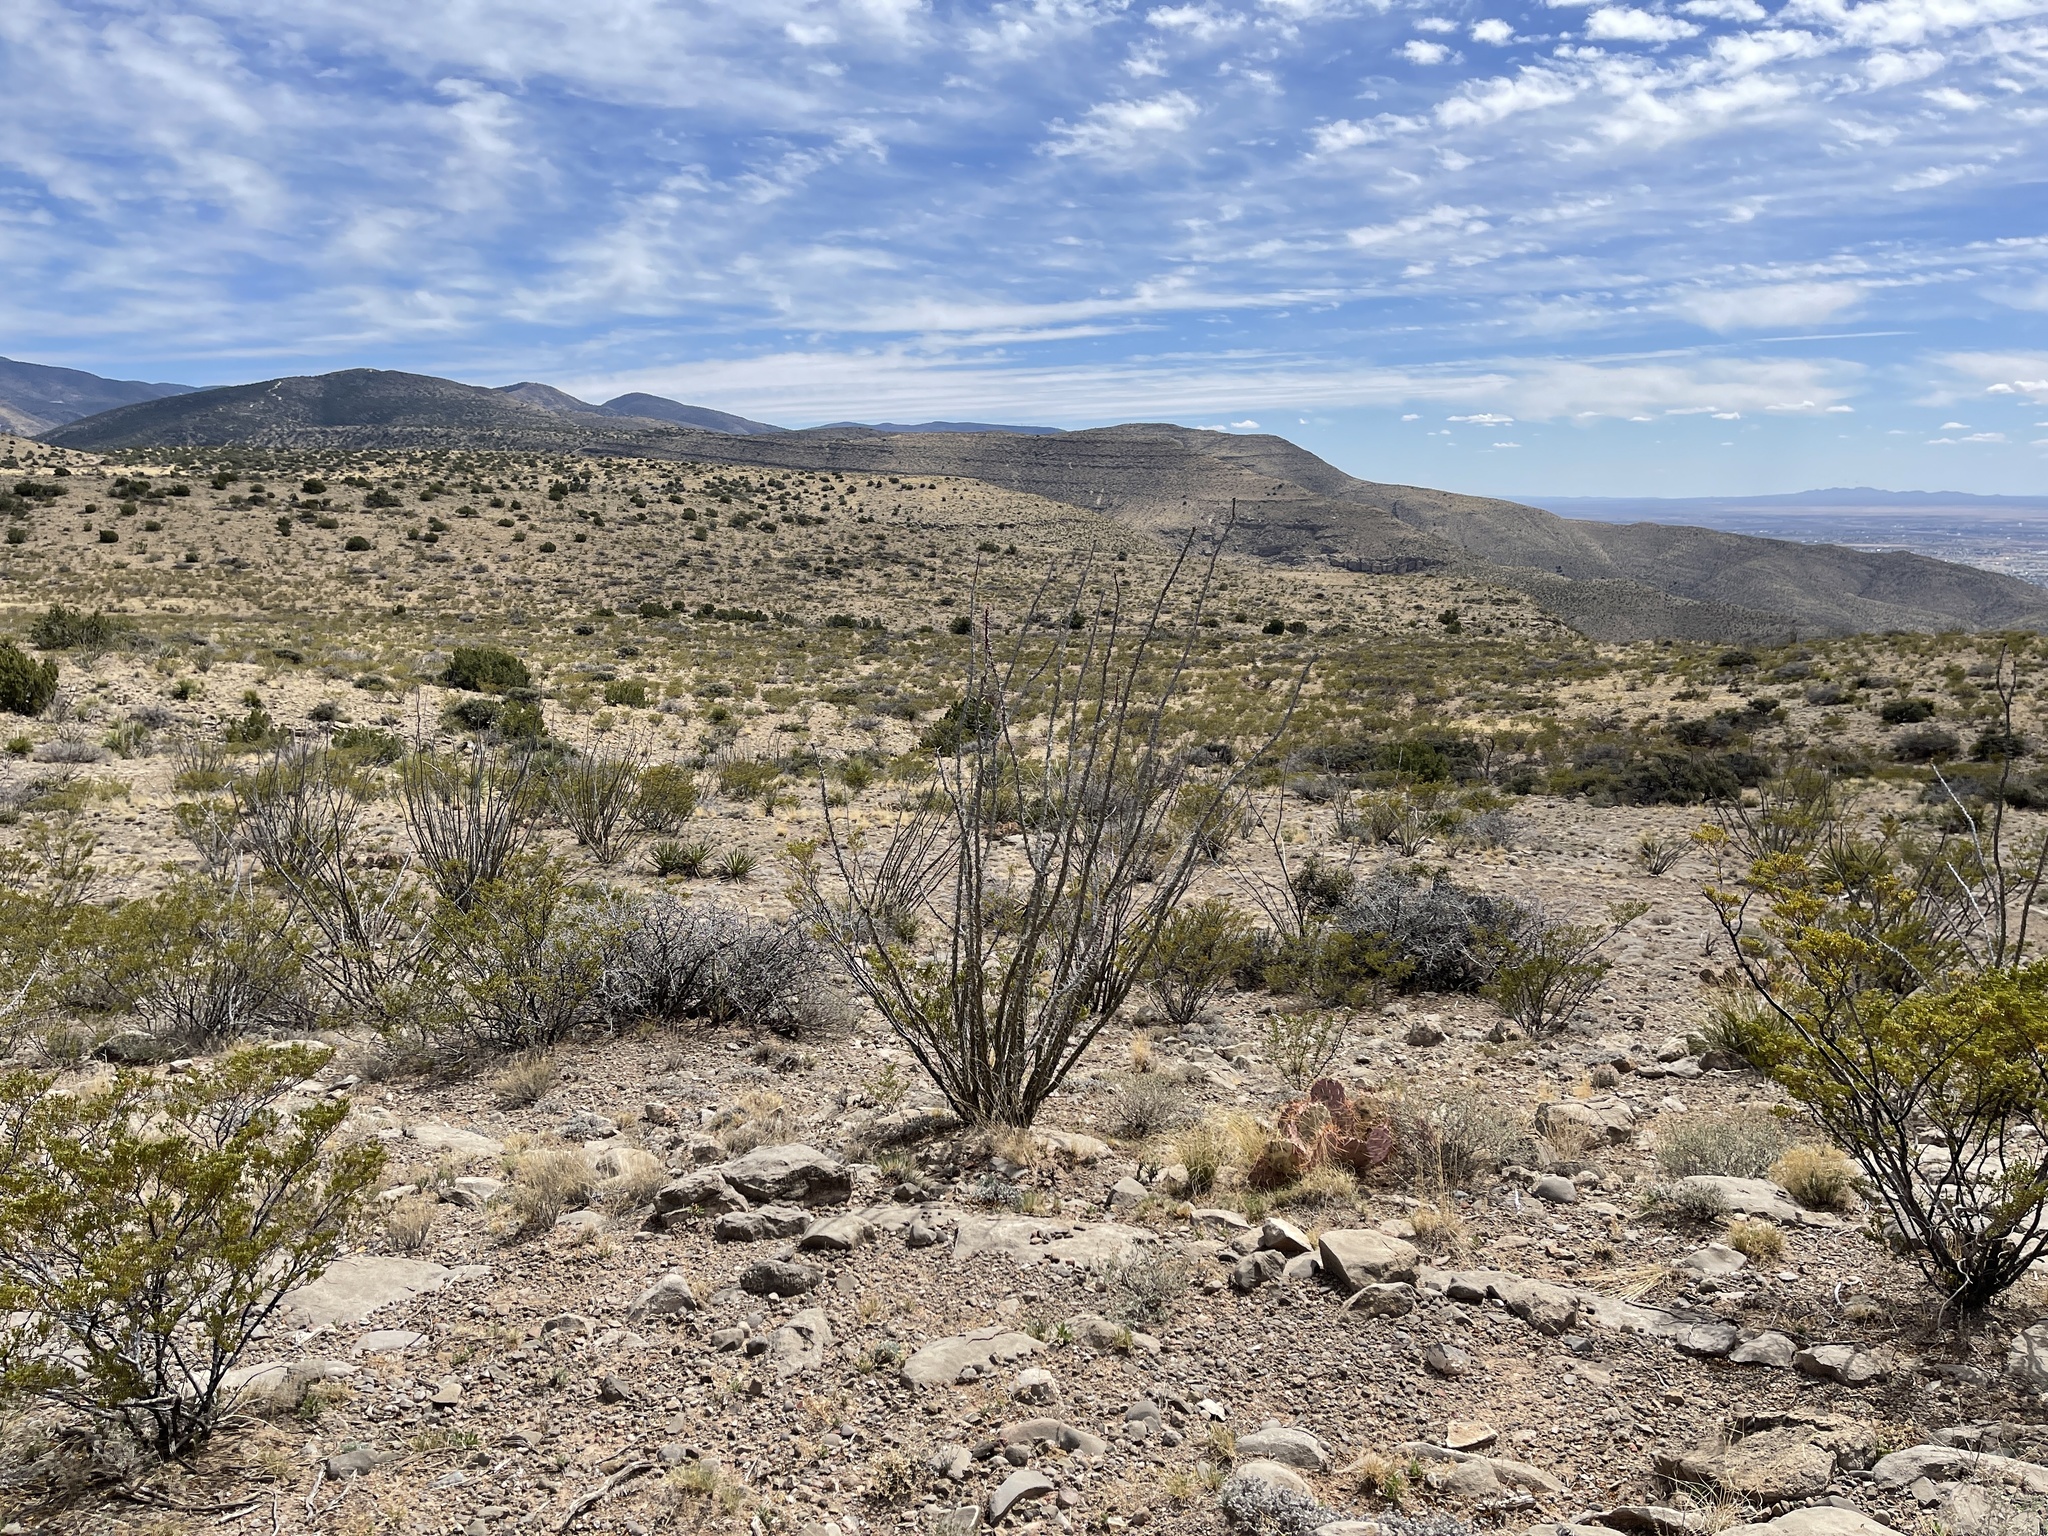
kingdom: Plantae
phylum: Tracheophyta
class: Magnoliopsida
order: Ericales
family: Fouquieriaceae
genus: Fouquieria
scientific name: Fouquieria splendens
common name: Vine-cactus
